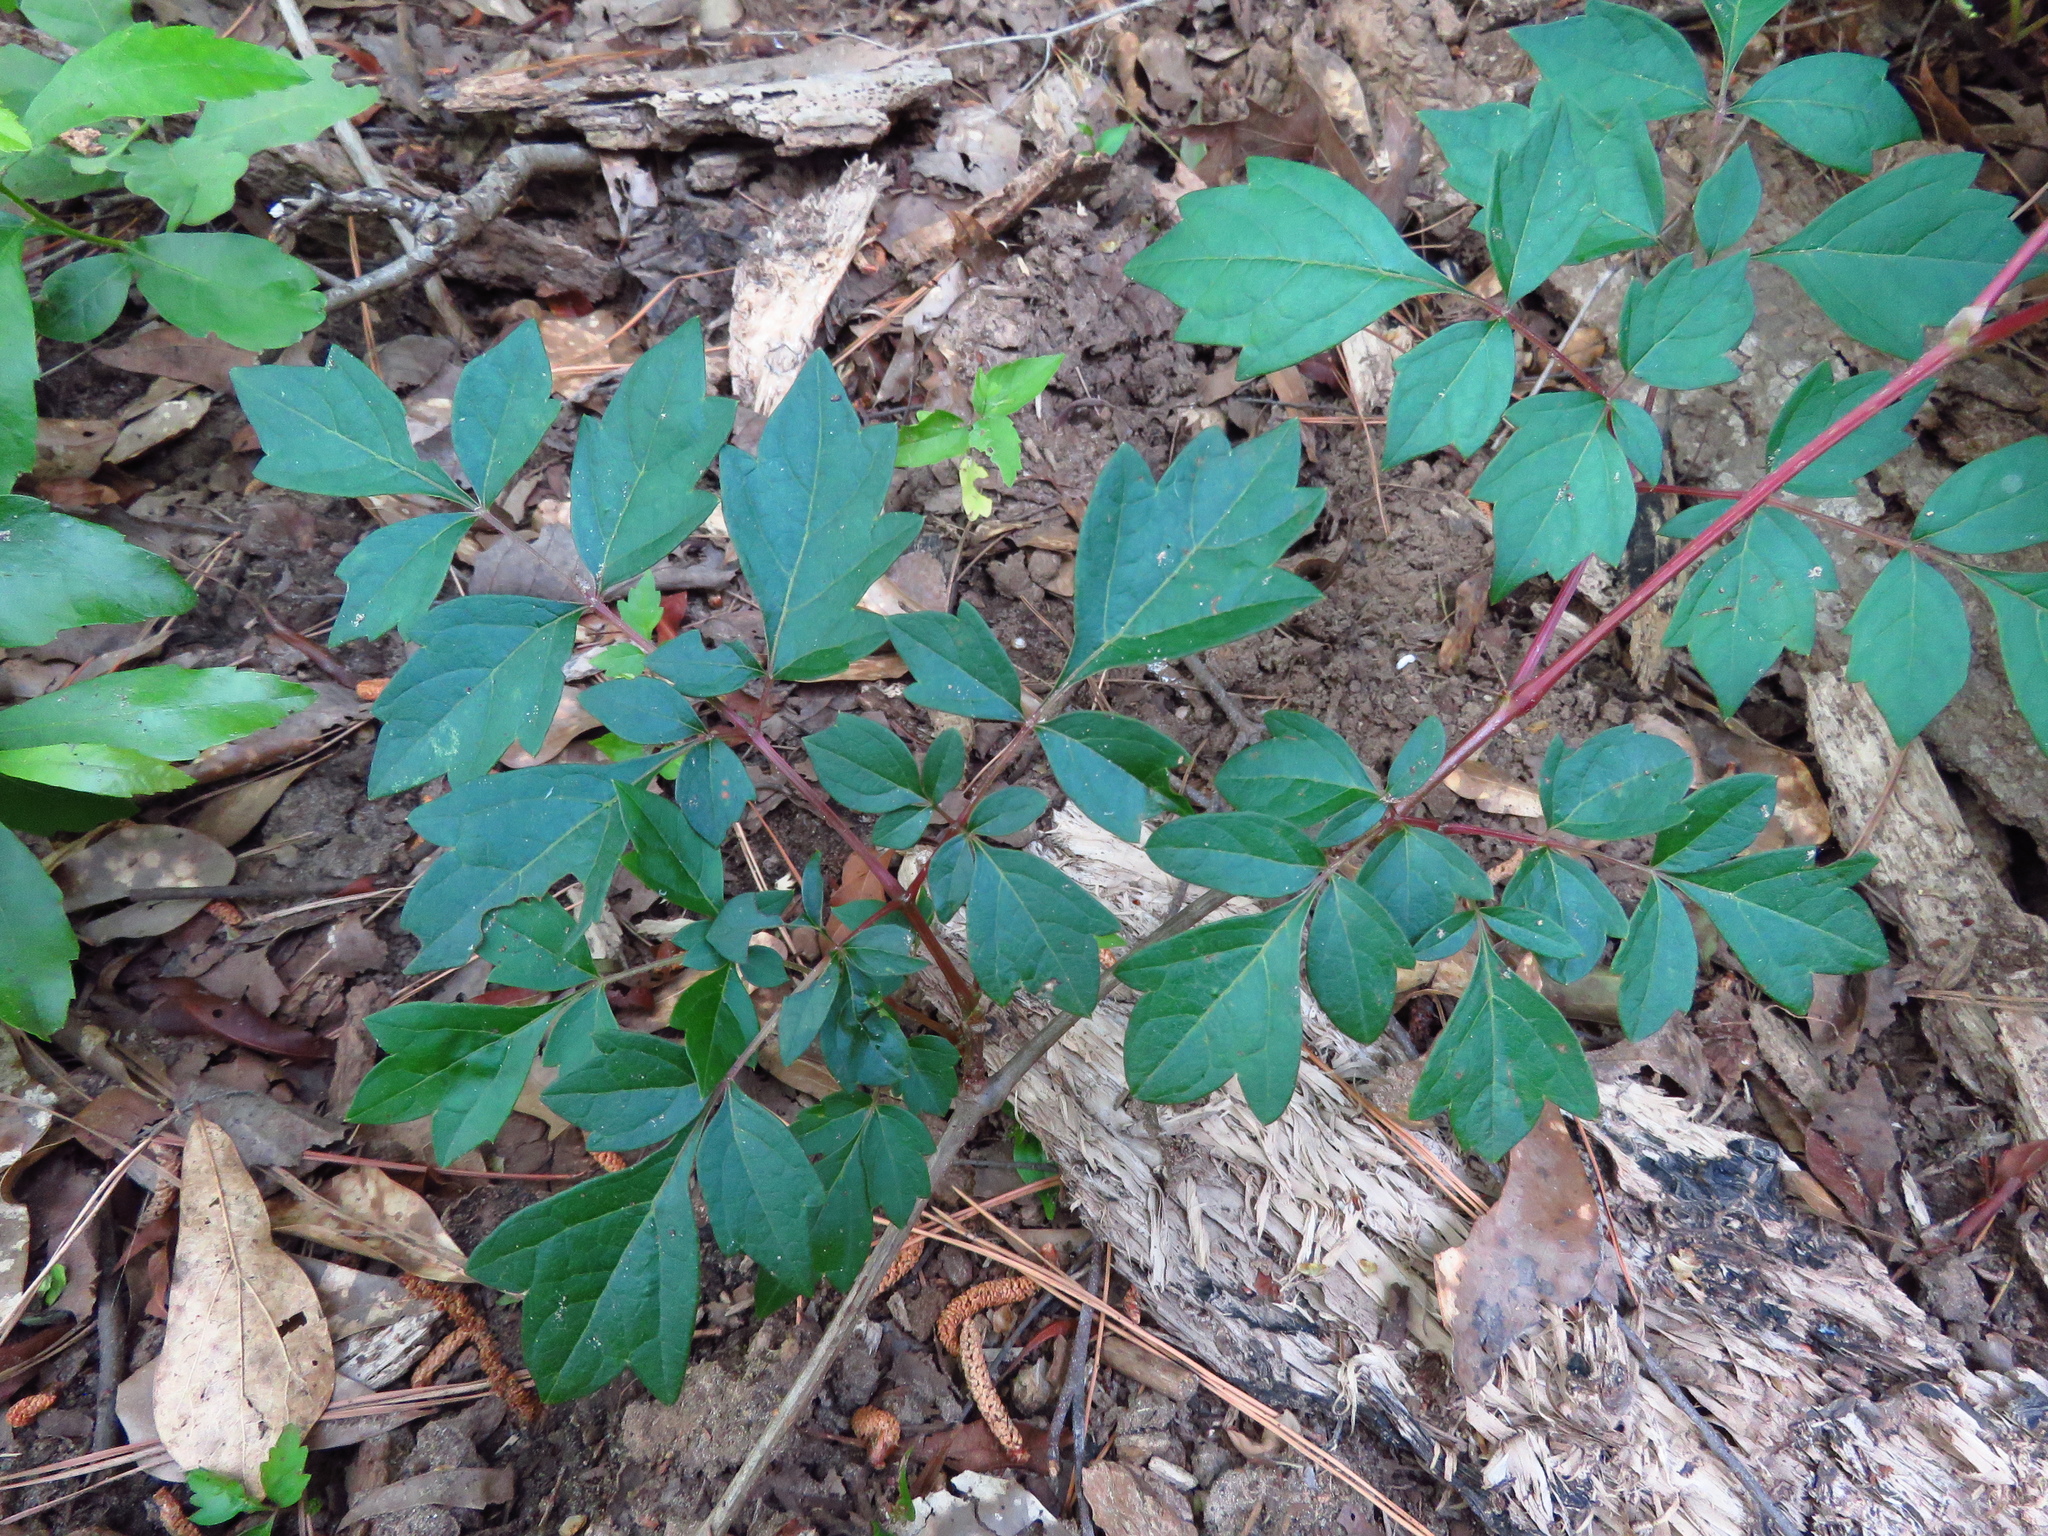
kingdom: Plantae
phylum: Tracheophyta
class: Magnoliopsida
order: Vitales
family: Vitaceae
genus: Nekemias
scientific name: Nekemias arborea
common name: Peppervine
